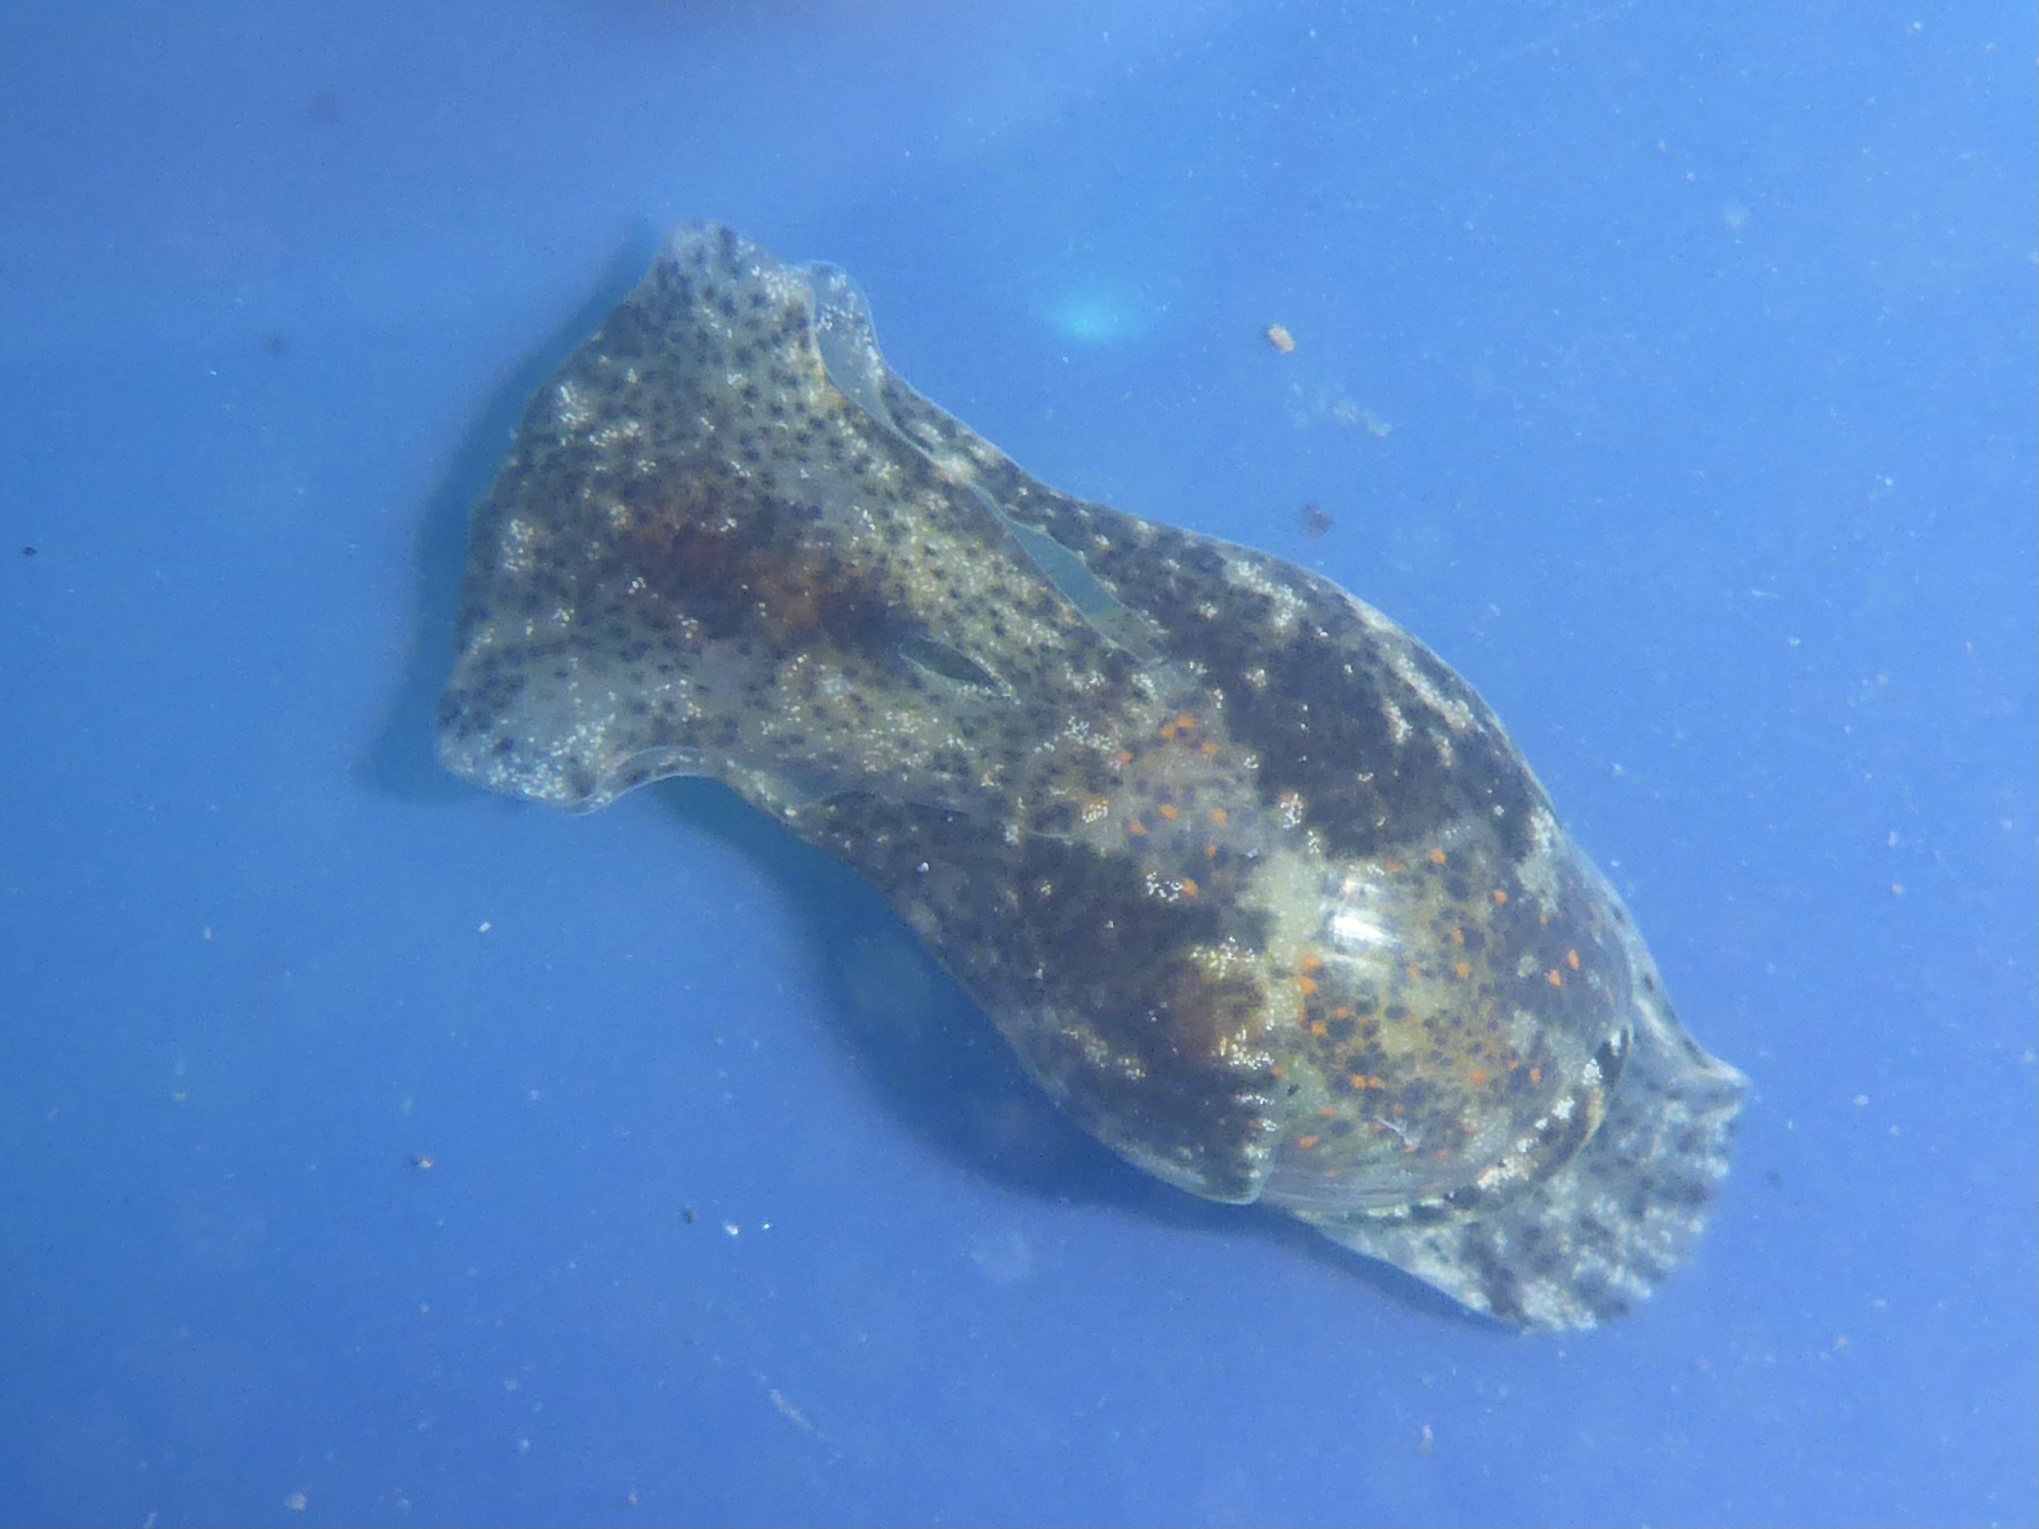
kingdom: Animalia
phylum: Mollusca
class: Gastropoda
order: Cephalaspidea
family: Haminoeidae
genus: Haloa
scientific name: Haloa japonica
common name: Japanese bubble snail
